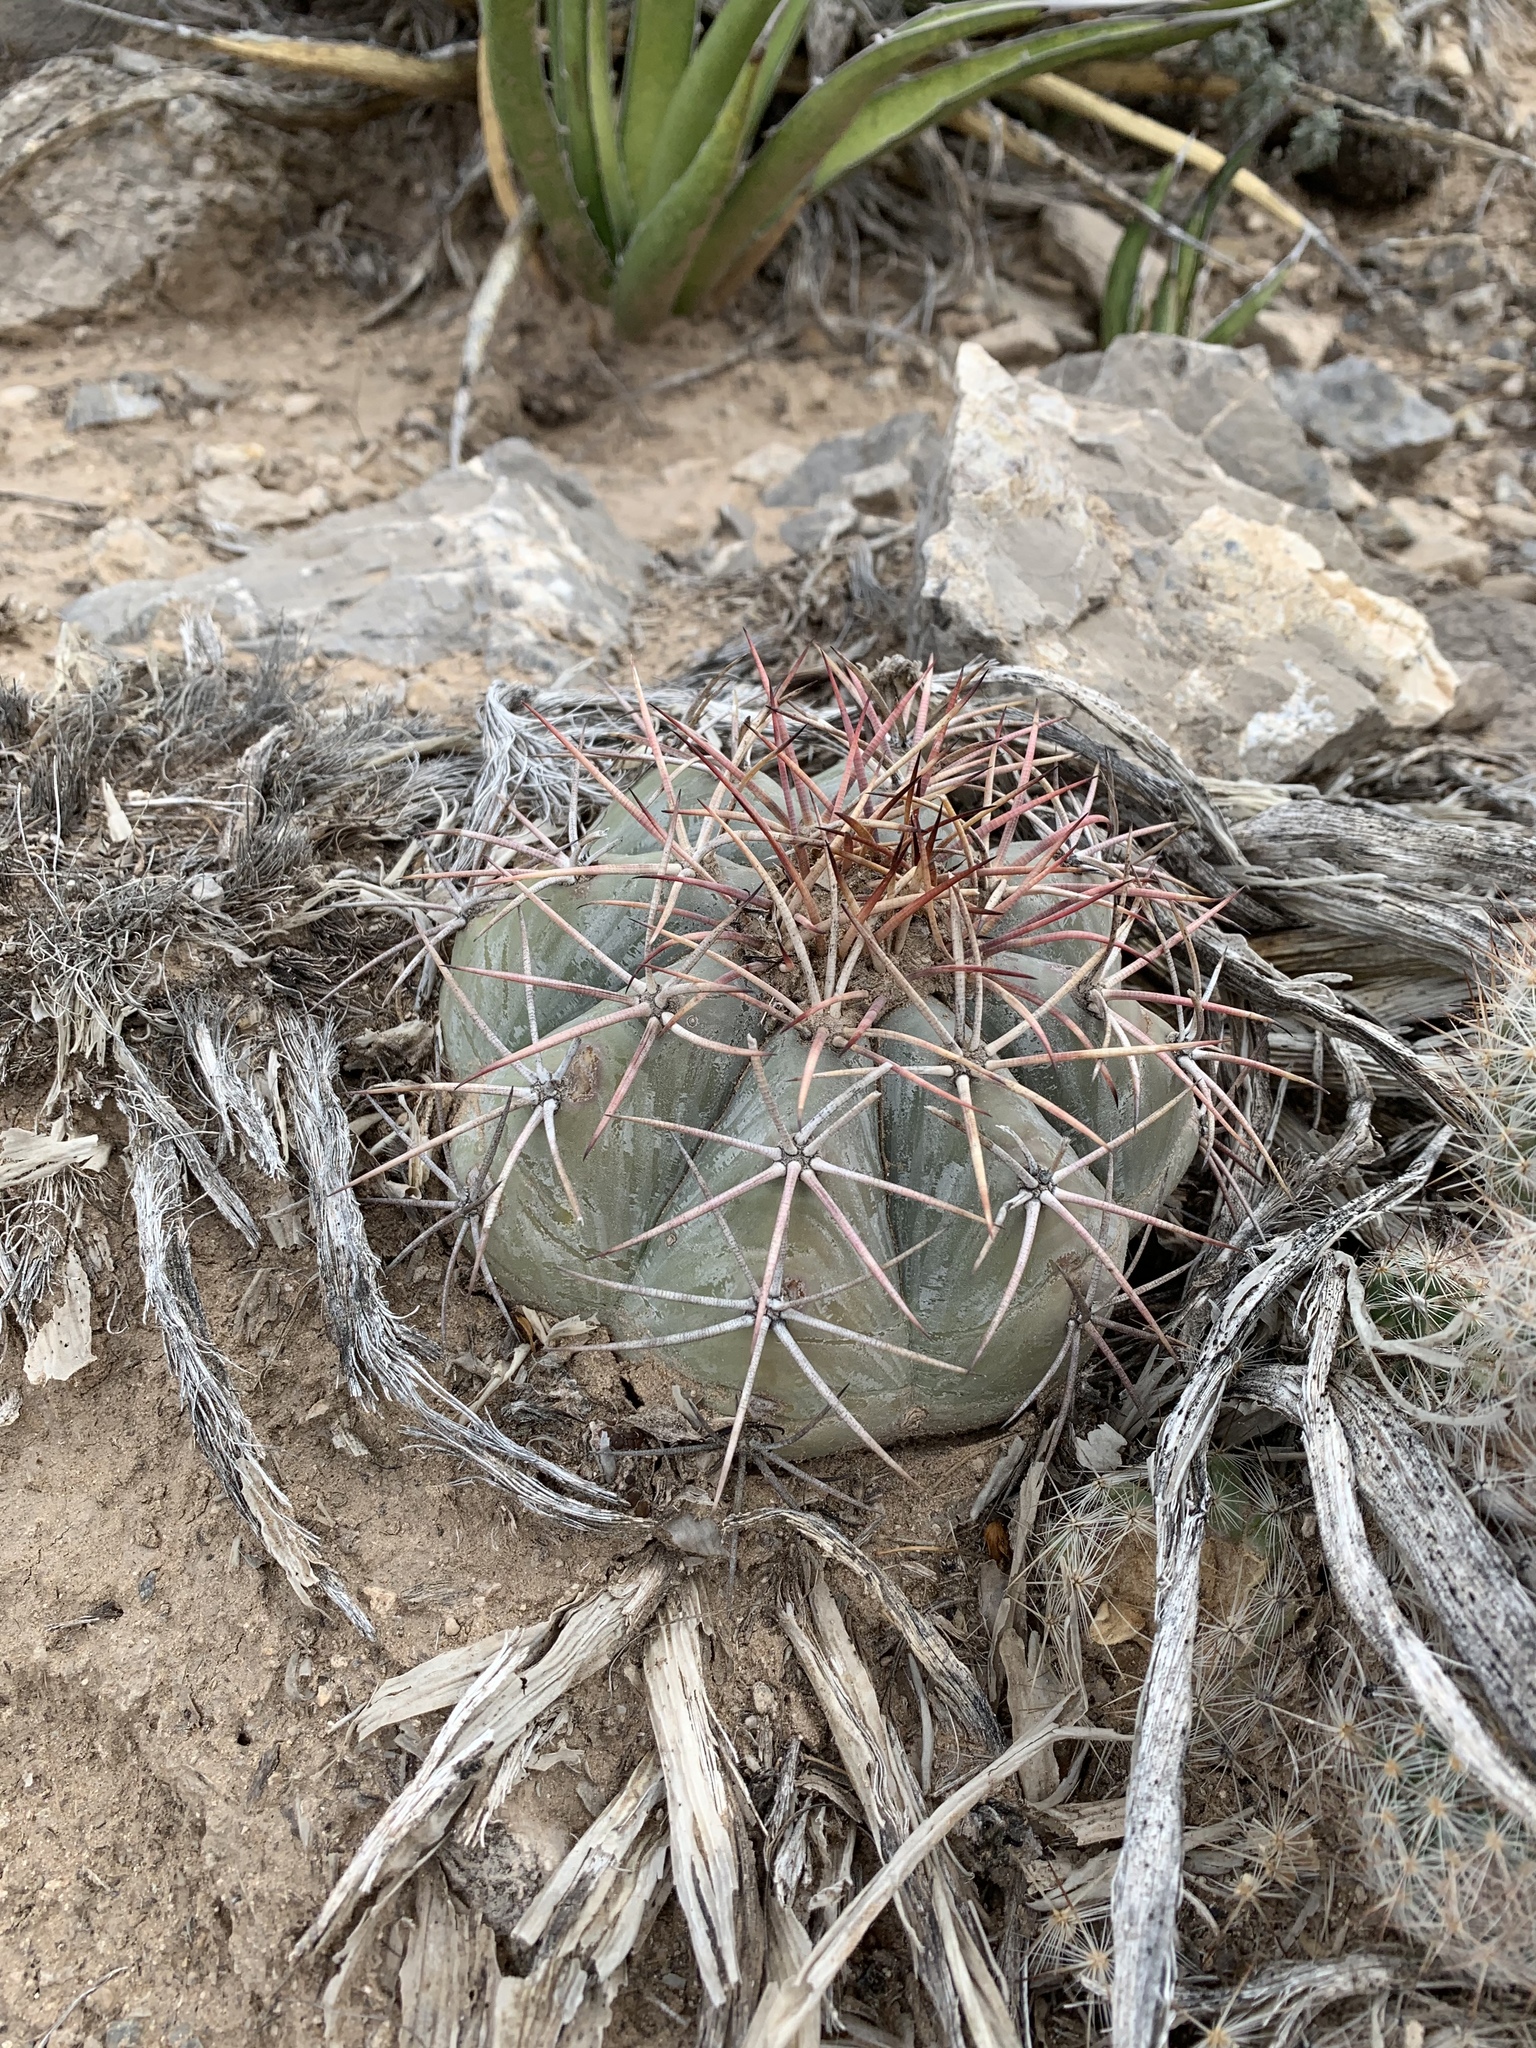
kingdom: Plantae
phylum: Tracheophyta
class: Magnoliopsida
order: Caryophyllales
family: Cactaceae
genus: Echinocactus
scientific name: Echinocactus horizonthalonius
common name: Devilshead
